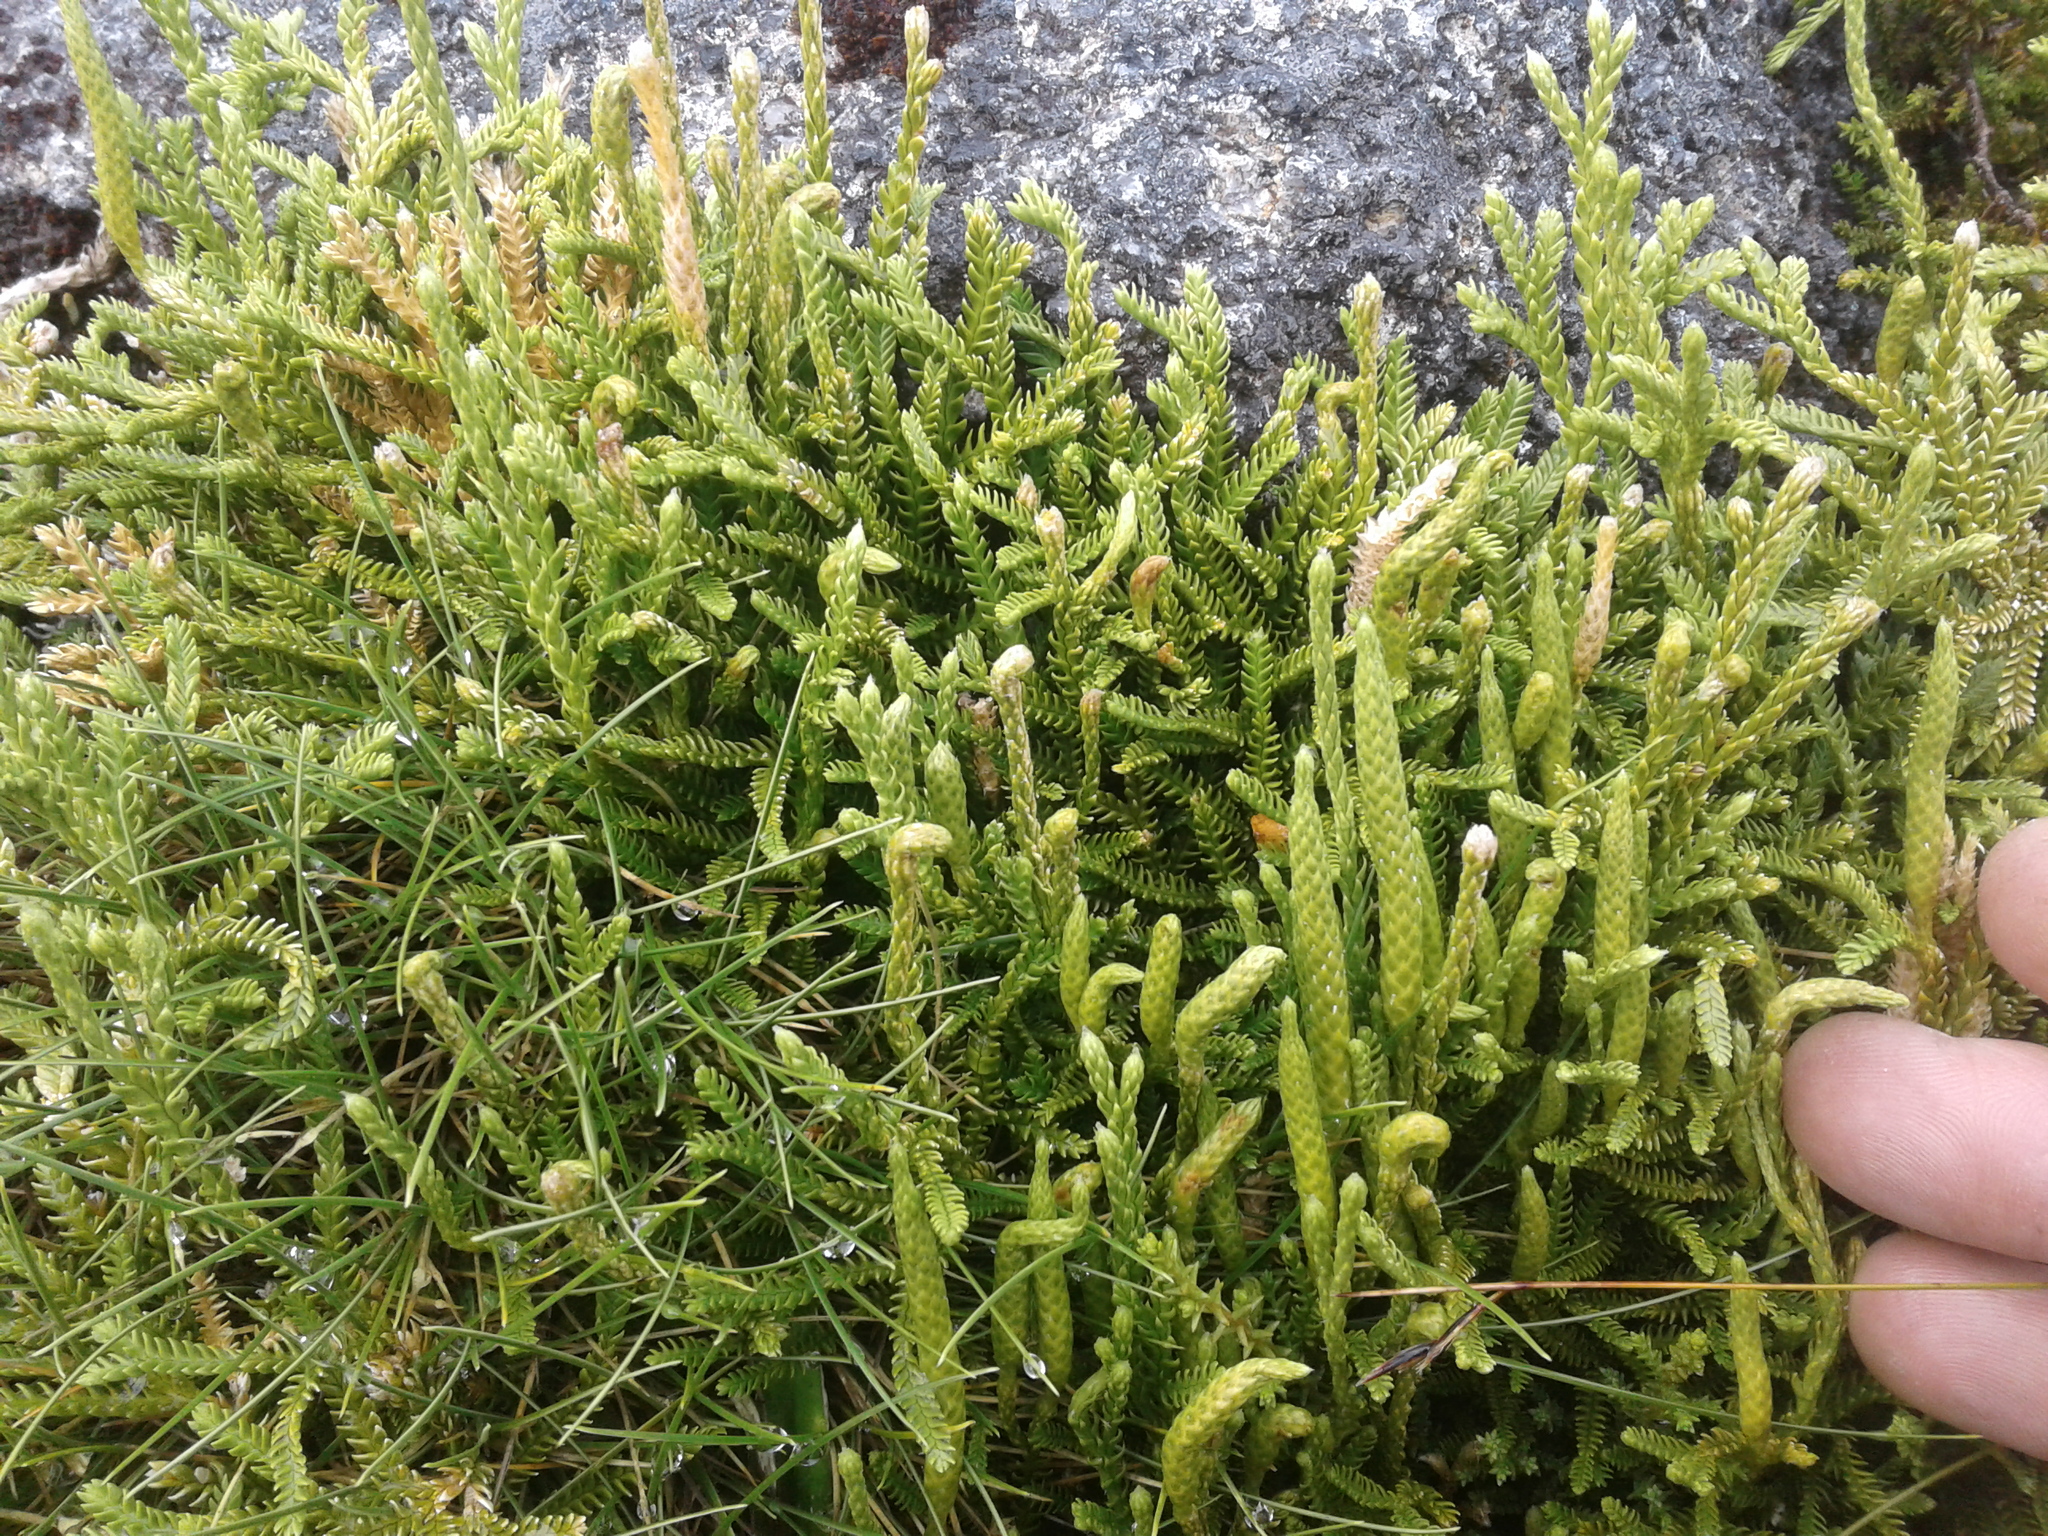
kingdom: Plantae
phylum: Tracheophyta
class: Lycopodiopsida
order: Lycopodiales
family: Lycopodiaceae
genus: Diphasium
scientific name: Diphasium scariosum
